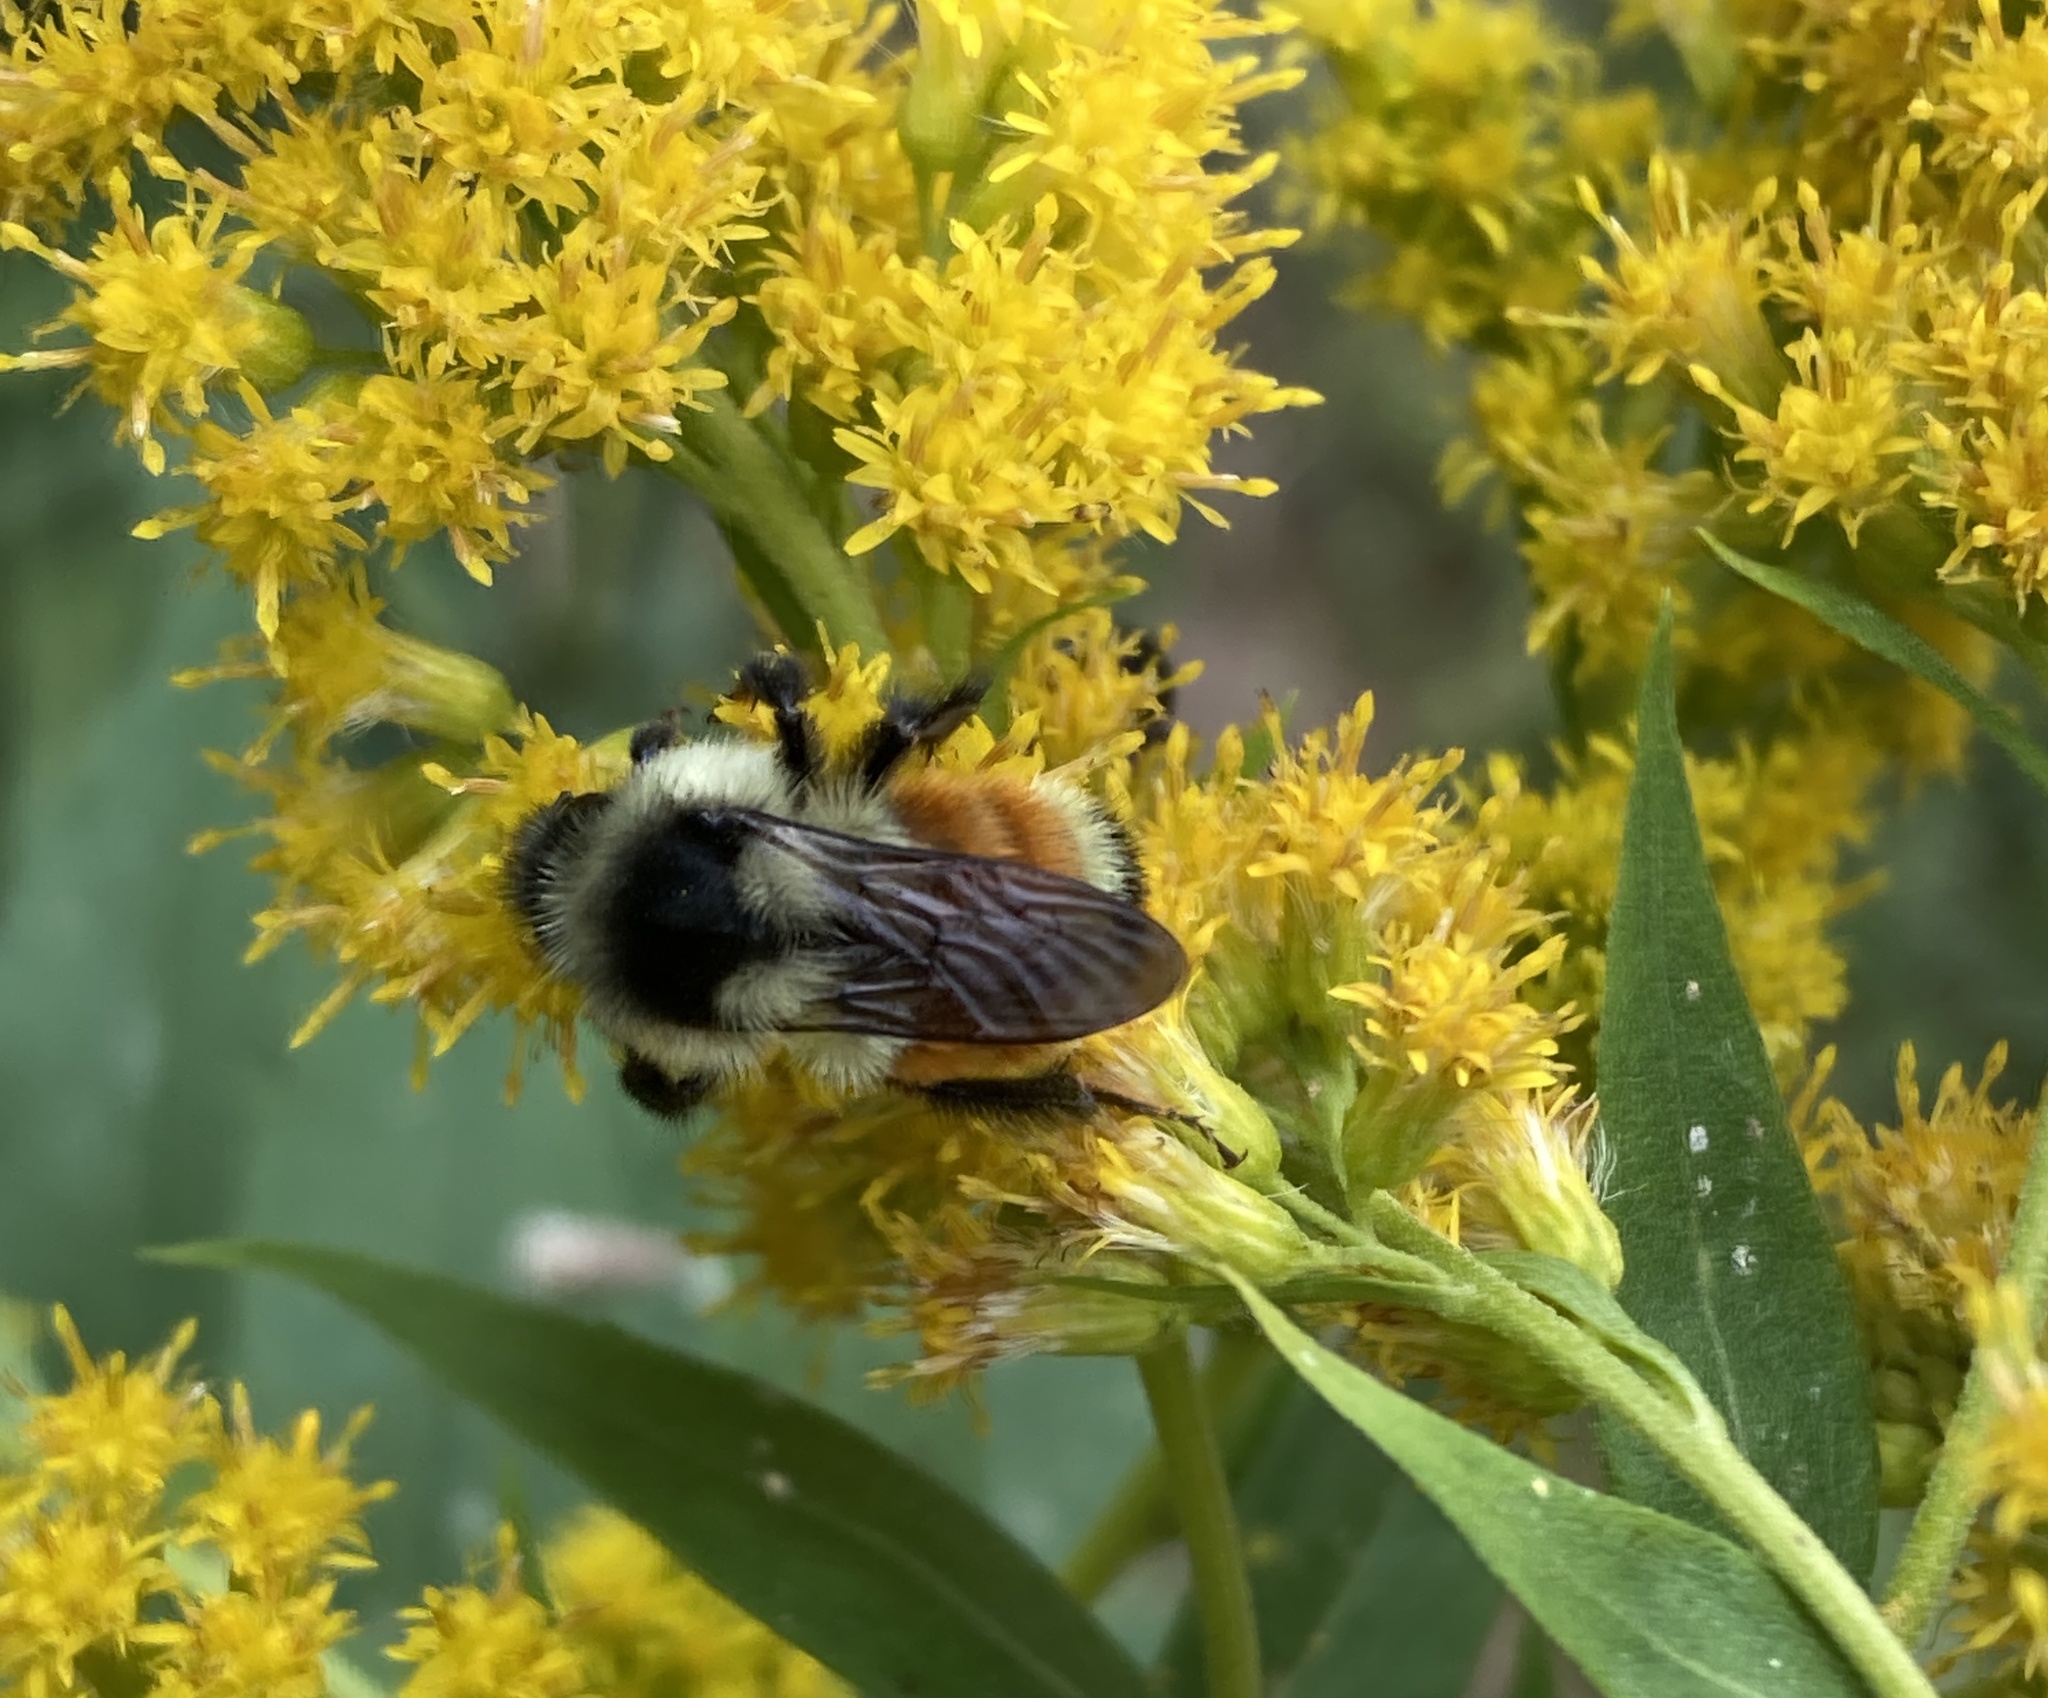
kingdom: Animalia
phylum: Arthropoda
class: Insecta
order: Hymenoptera
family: Apidae
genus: Bombus
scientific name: Bombus ternarius
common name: Tri-colored bumble bee
